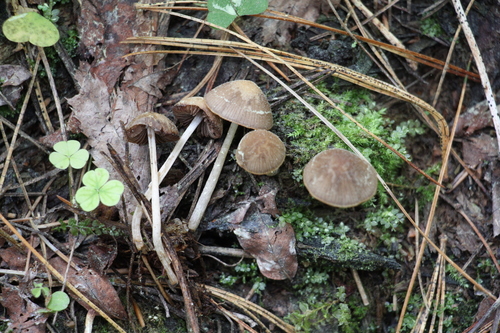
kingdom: Fungi
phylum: Basidiomycota
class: Agaricomycetes
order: Agaricales
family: Psathyrellaceae
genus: Psathyrella
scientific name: Psathyrella fatua
